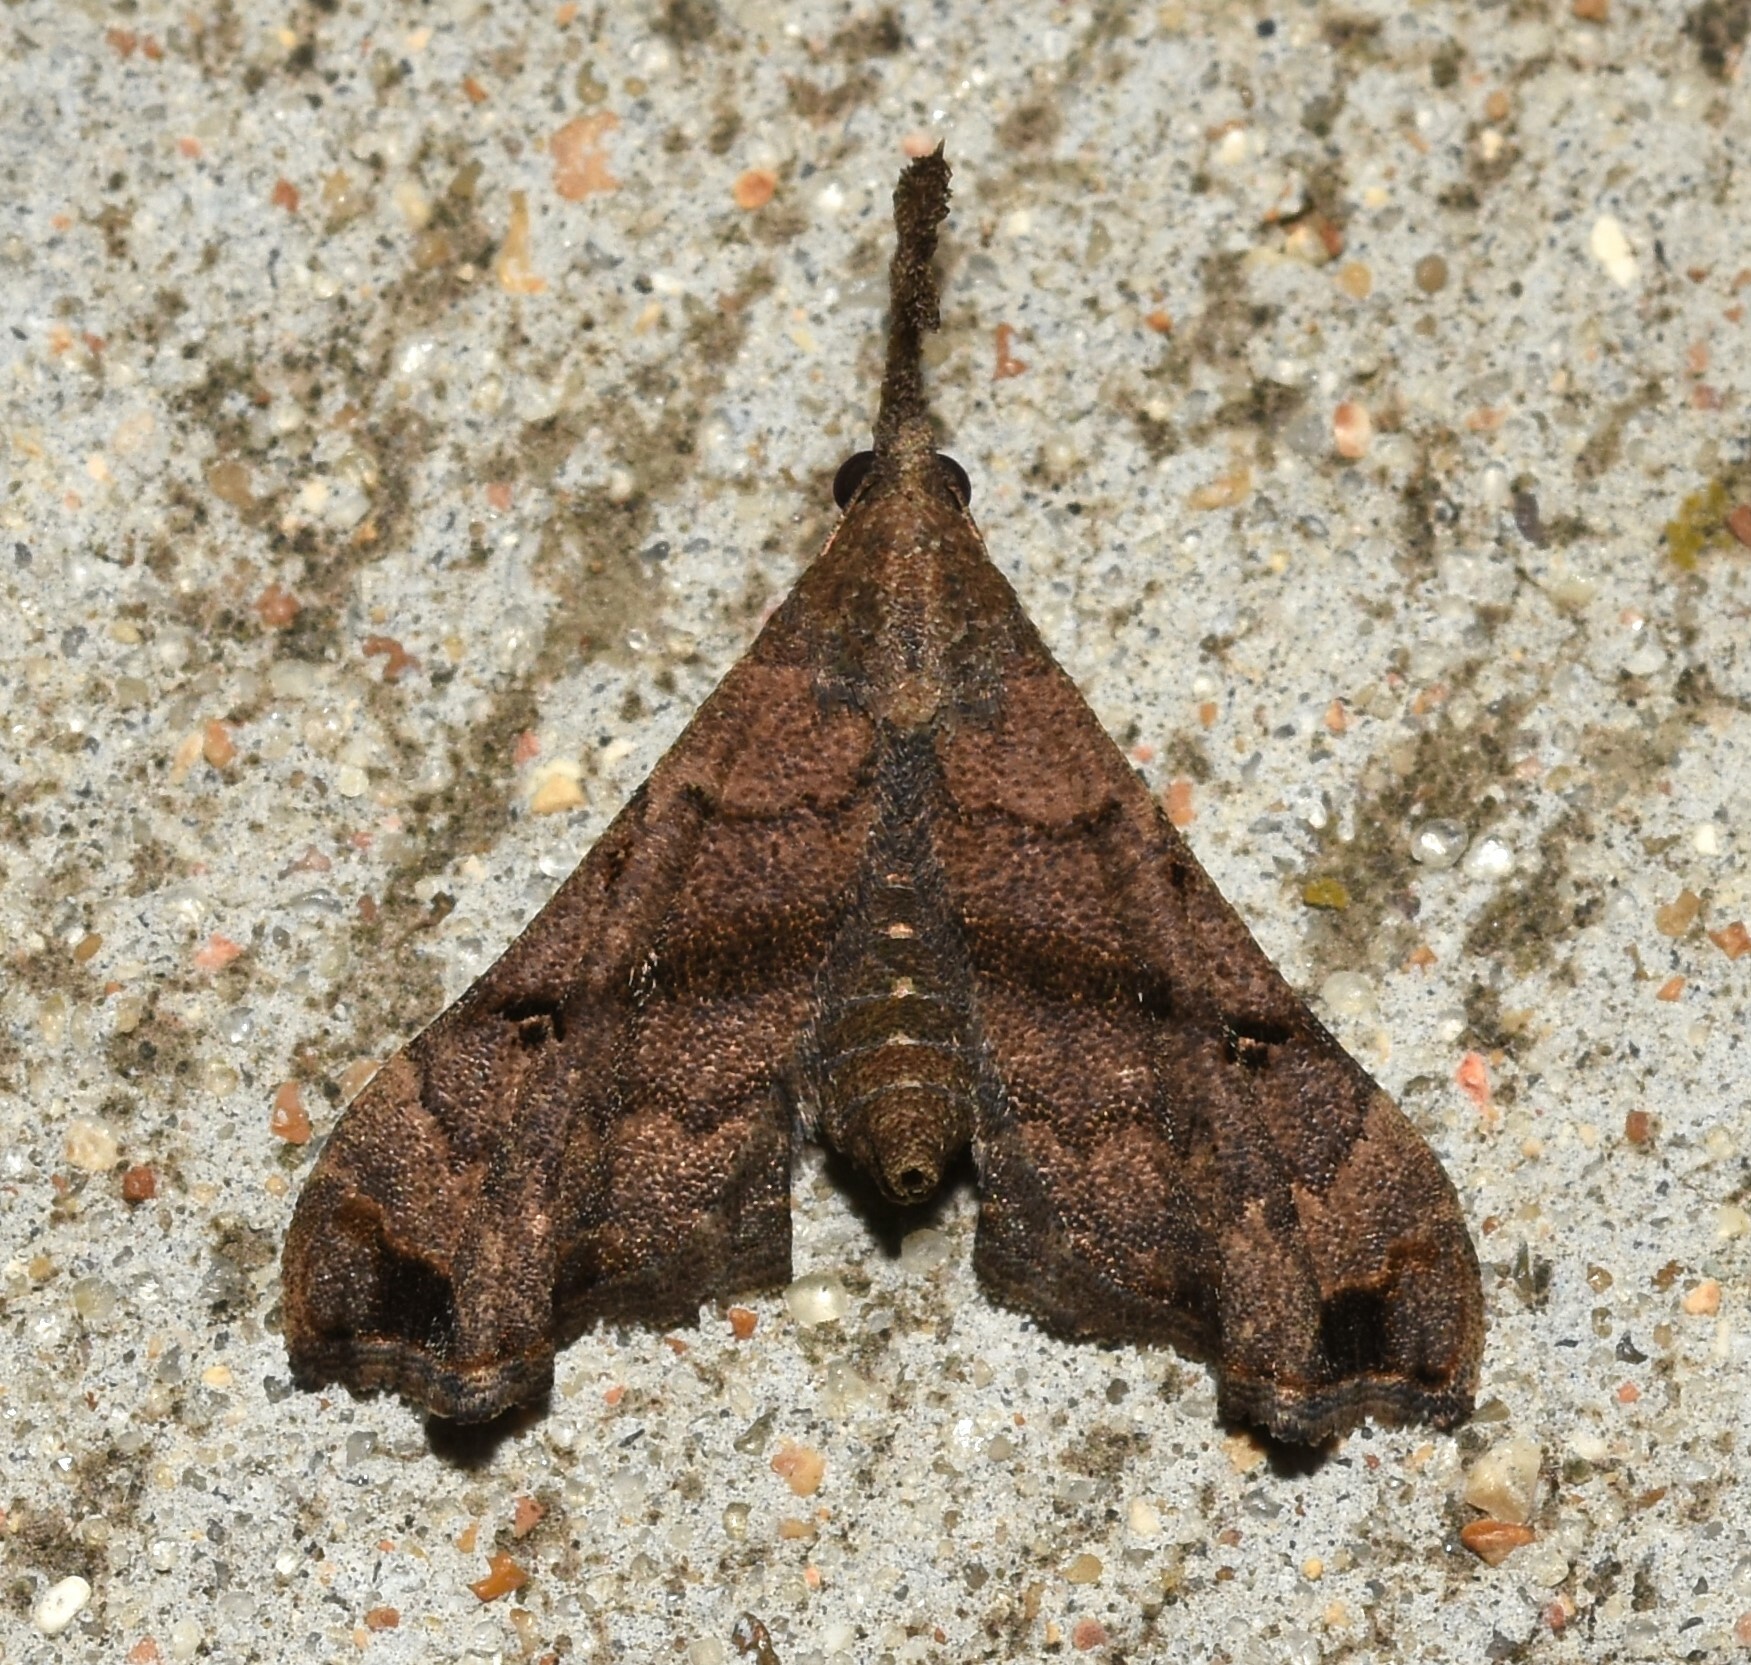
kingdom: Animalia
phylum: Arthropoda
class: Insecta
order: Lepidoptera
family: Erebidae
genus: Palthis
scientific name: Palthis asopialis
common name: Faint-spotted palthis moth
